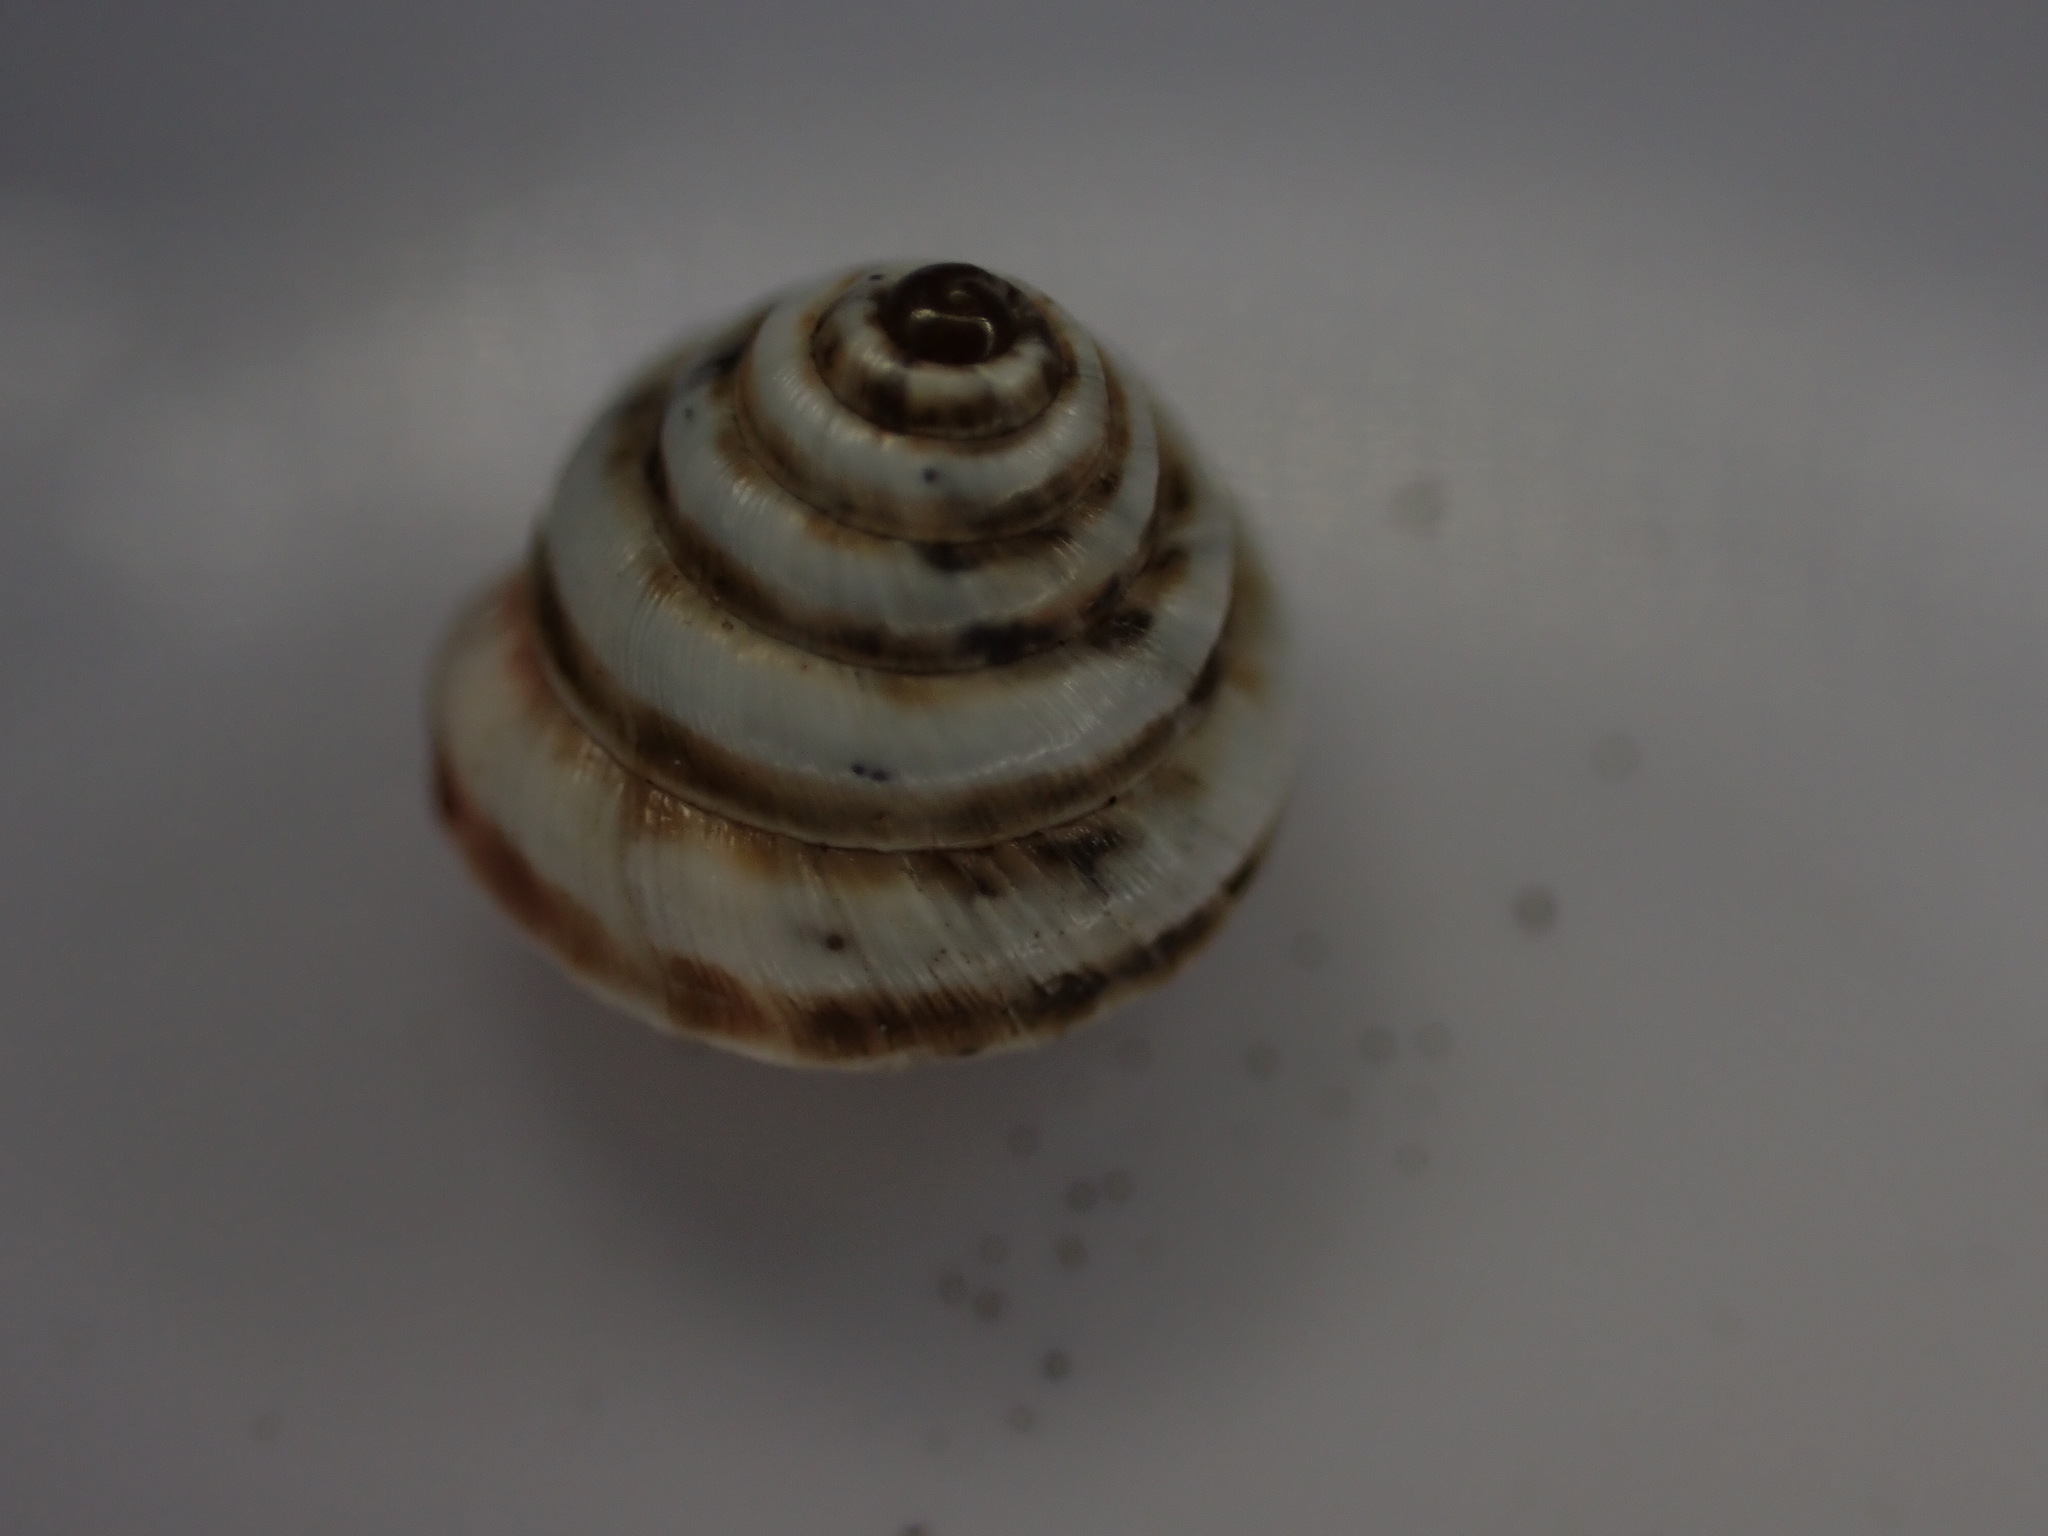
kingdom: Animalia
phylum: Mollusca
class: Gastropoda
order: Stylommatophora
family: Geomitridae
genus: Trochoidea
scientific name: Trochoidea trochoides
